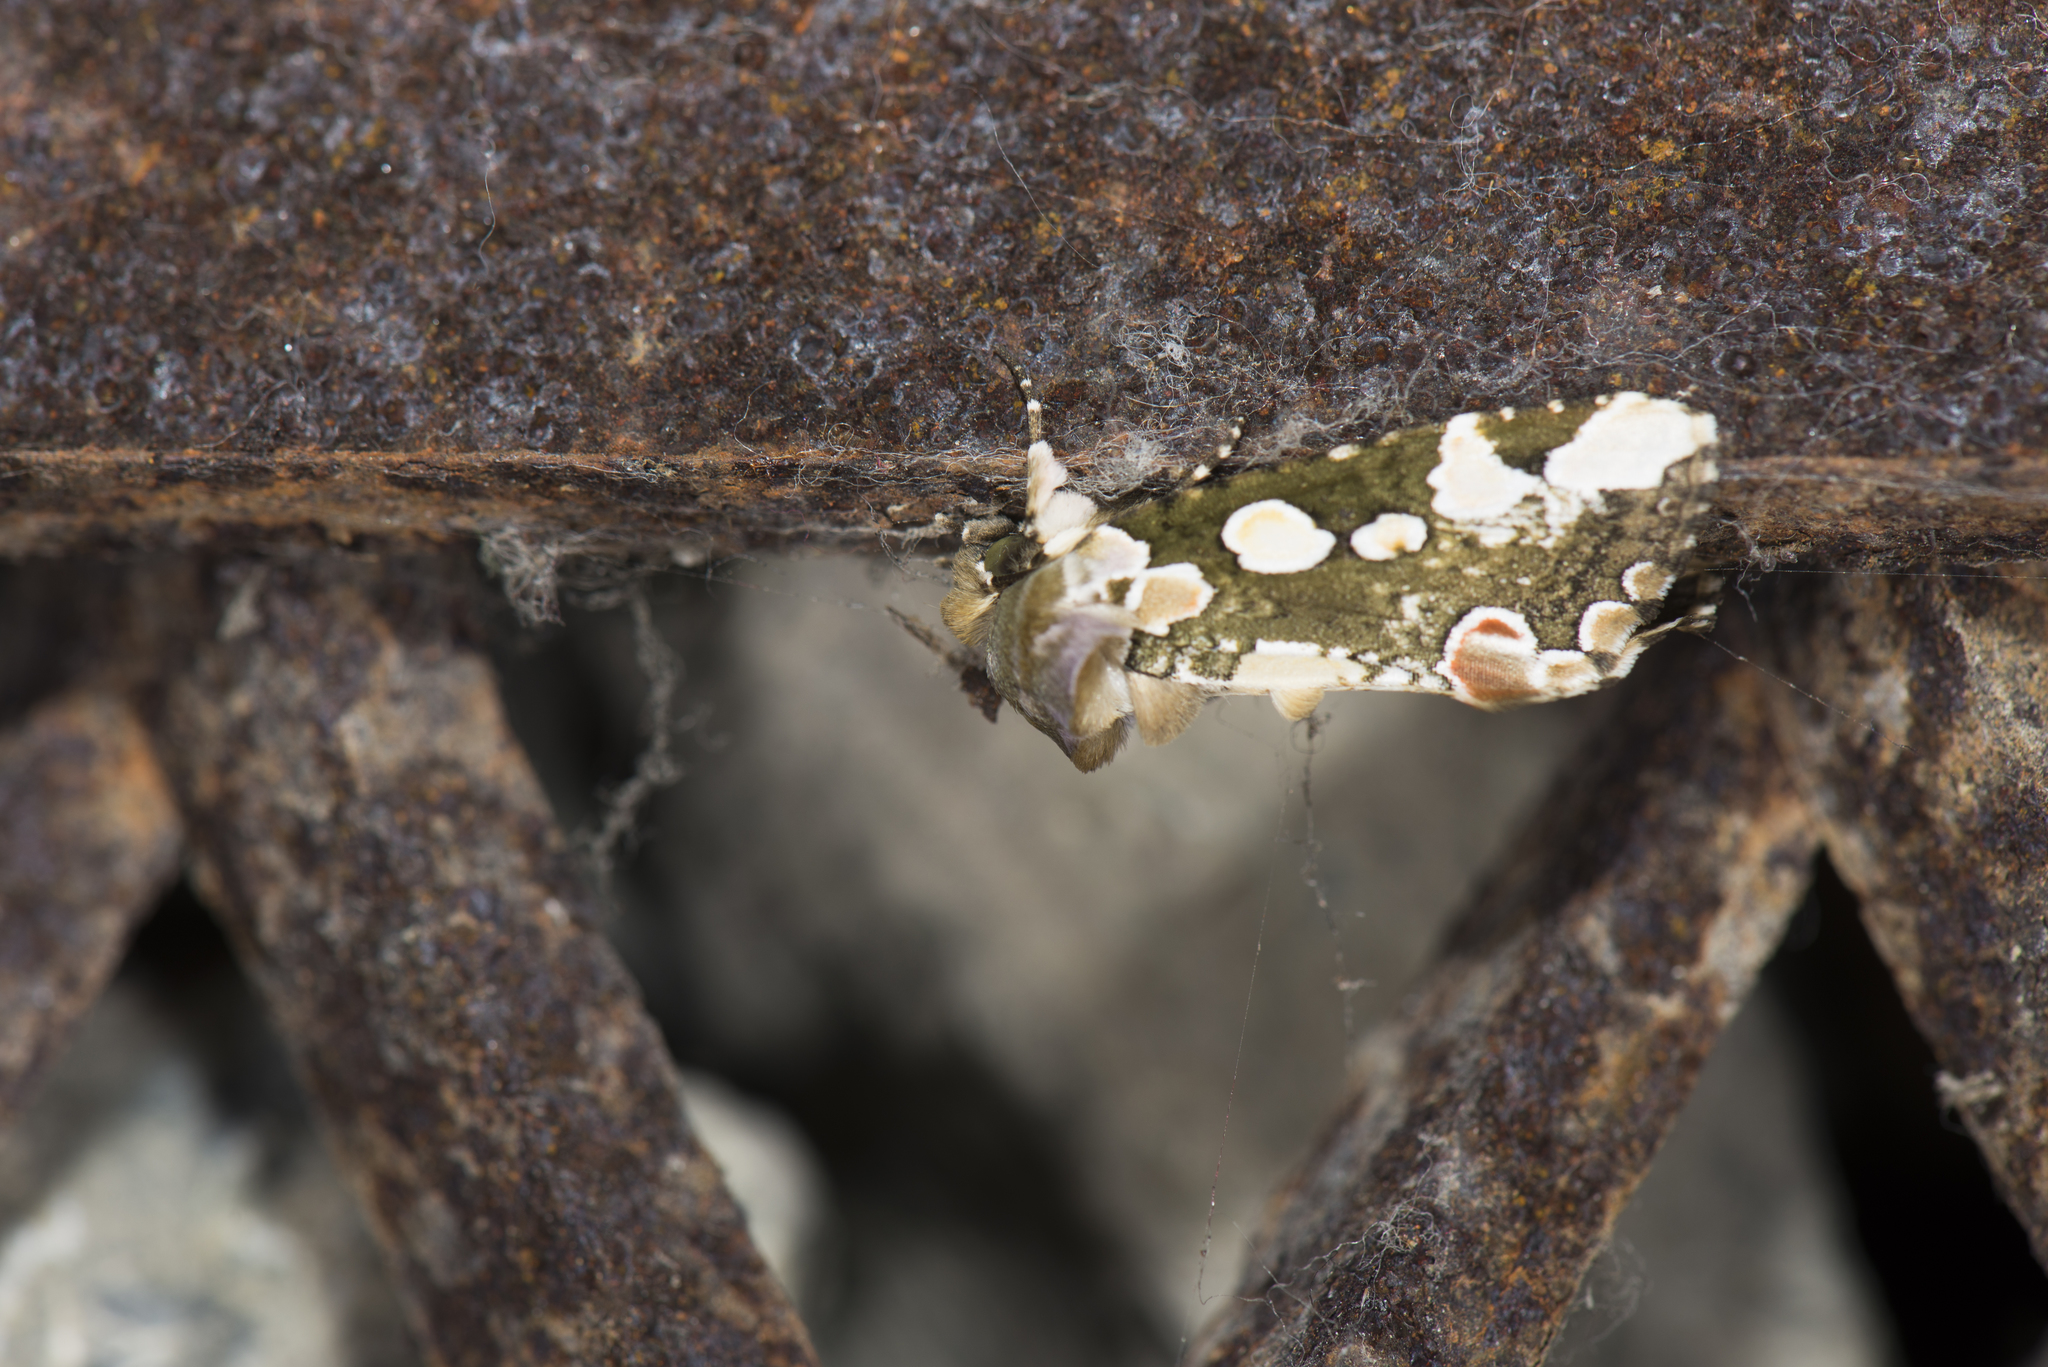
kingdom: Animalia
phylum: Arthropoda
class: Insecta
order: Lepidoptera
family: Drepanidae
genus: Horithyatira
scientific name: Horithyatira takamukui
